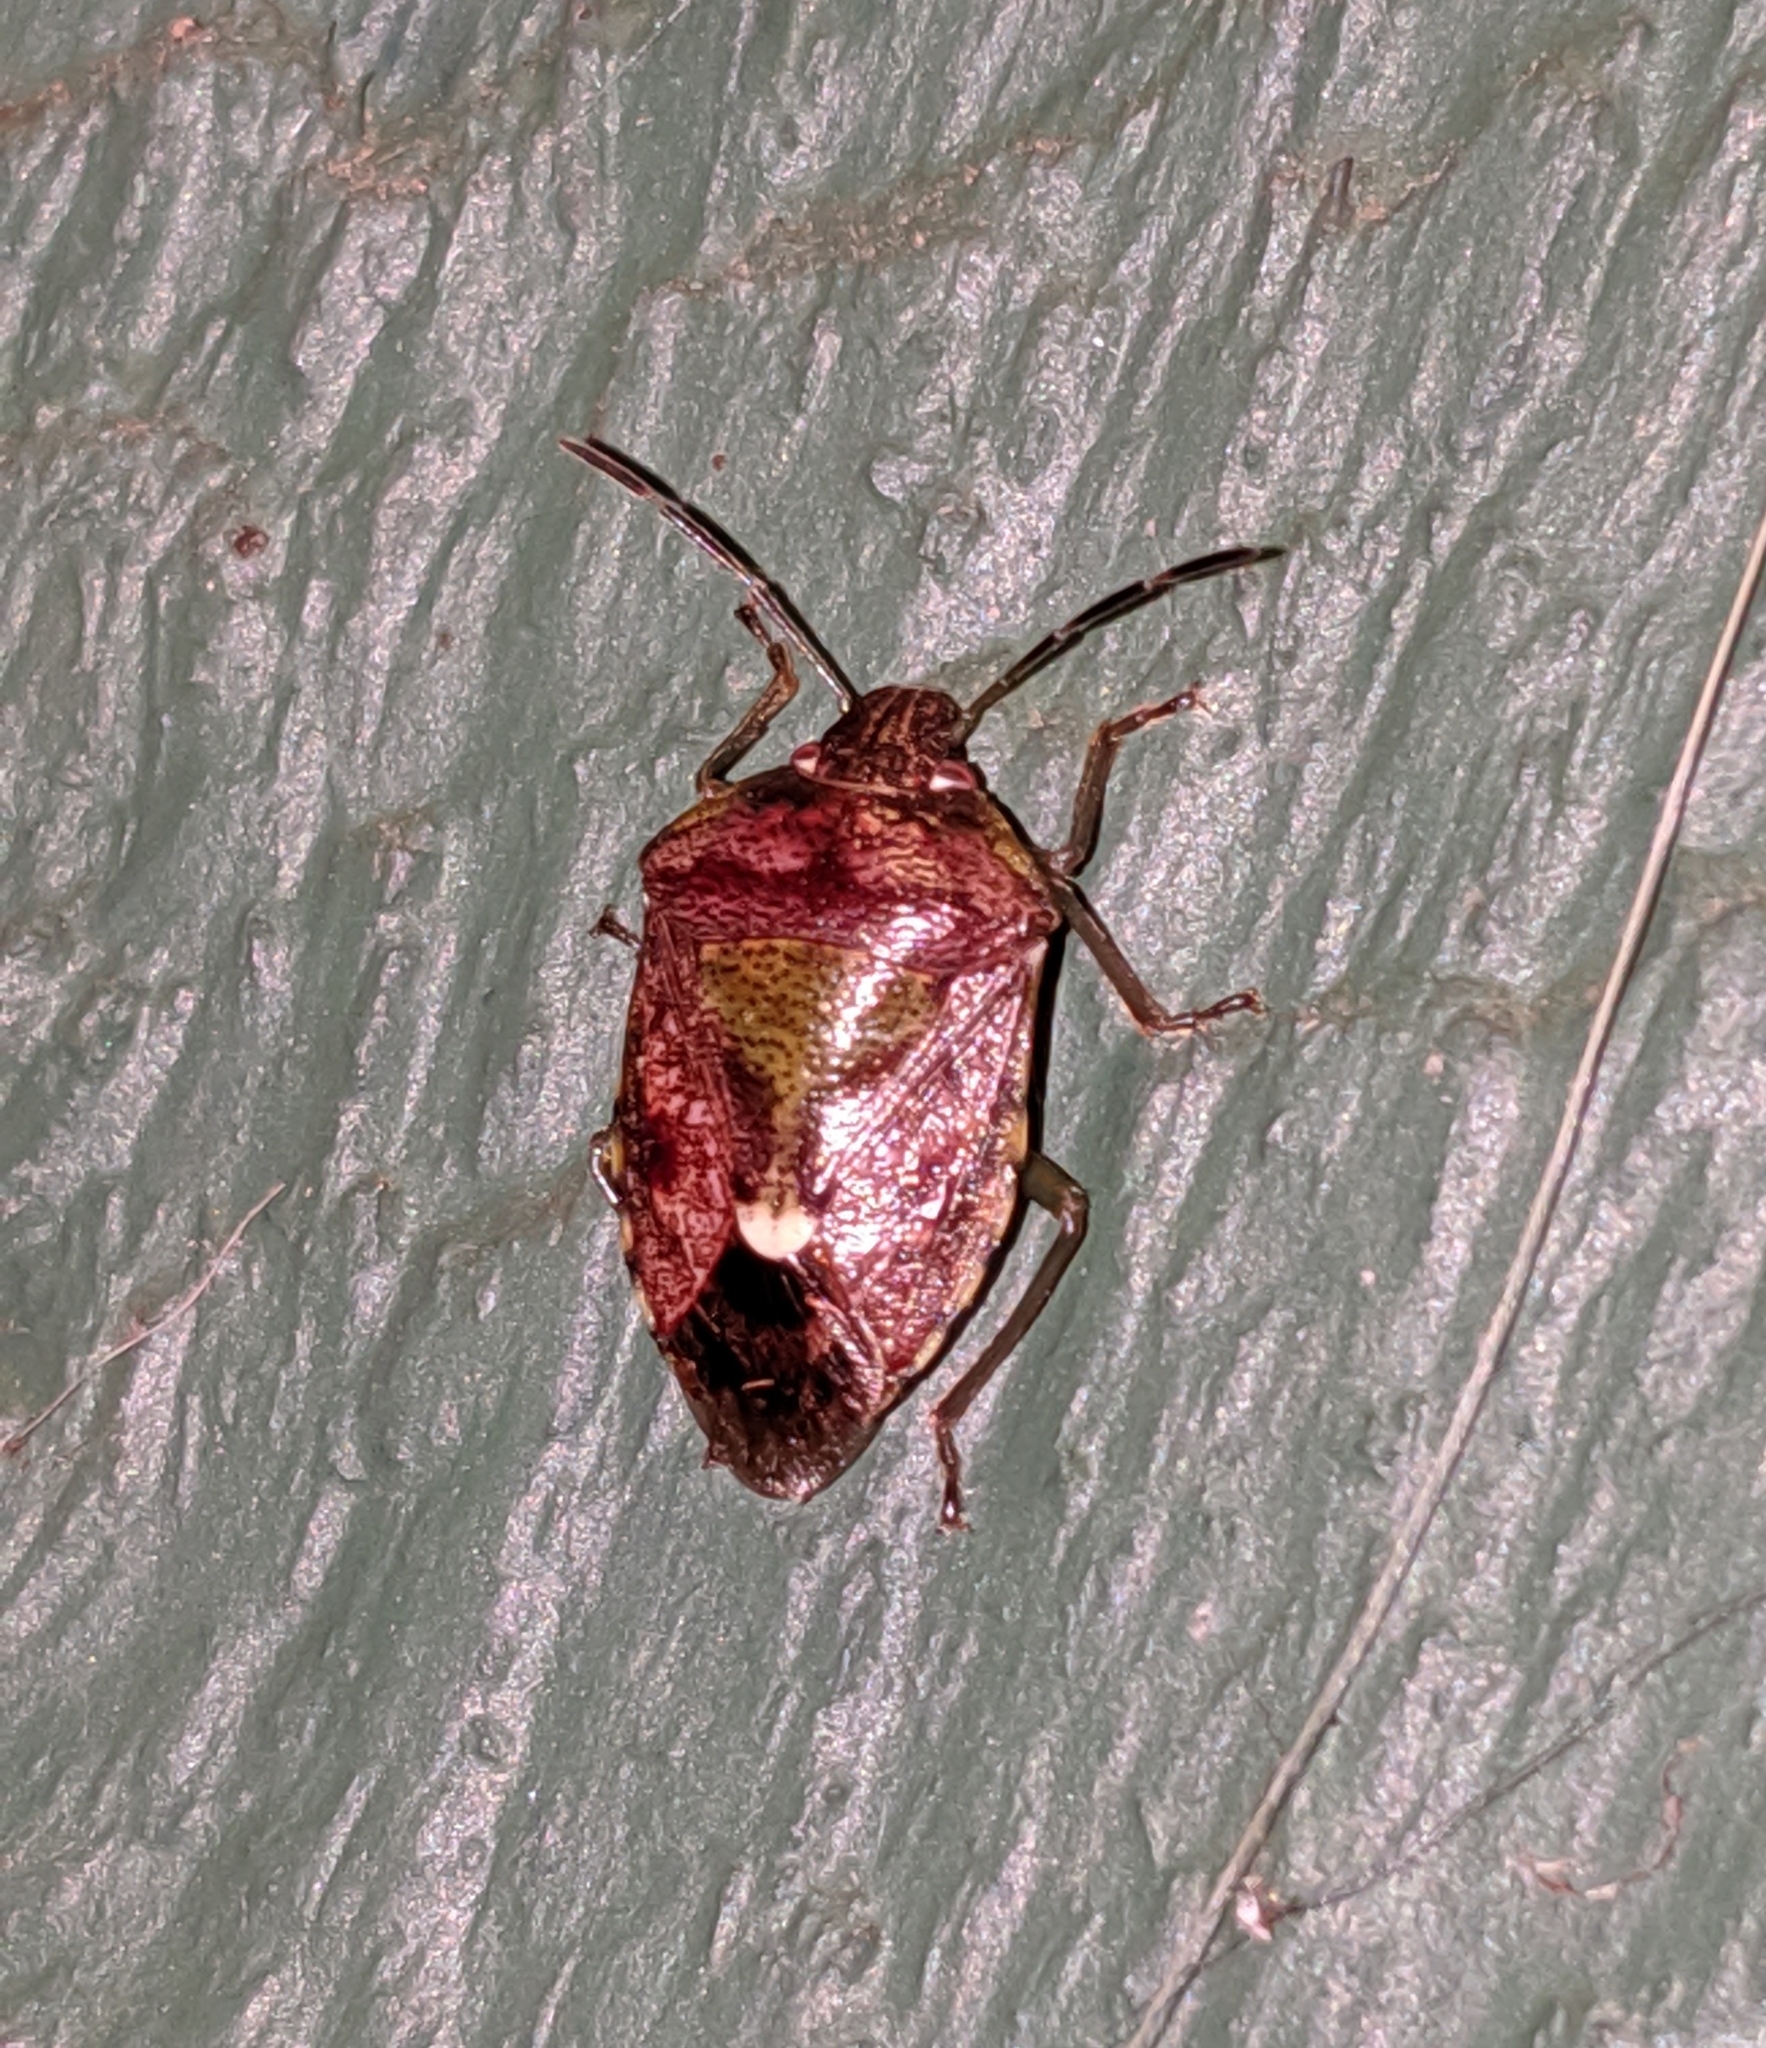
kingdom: Animalia
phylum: Arthropoda
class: Insecta
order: Hemiptera
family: Pentatomidae
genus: Banasa
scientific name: Banasa sordida
